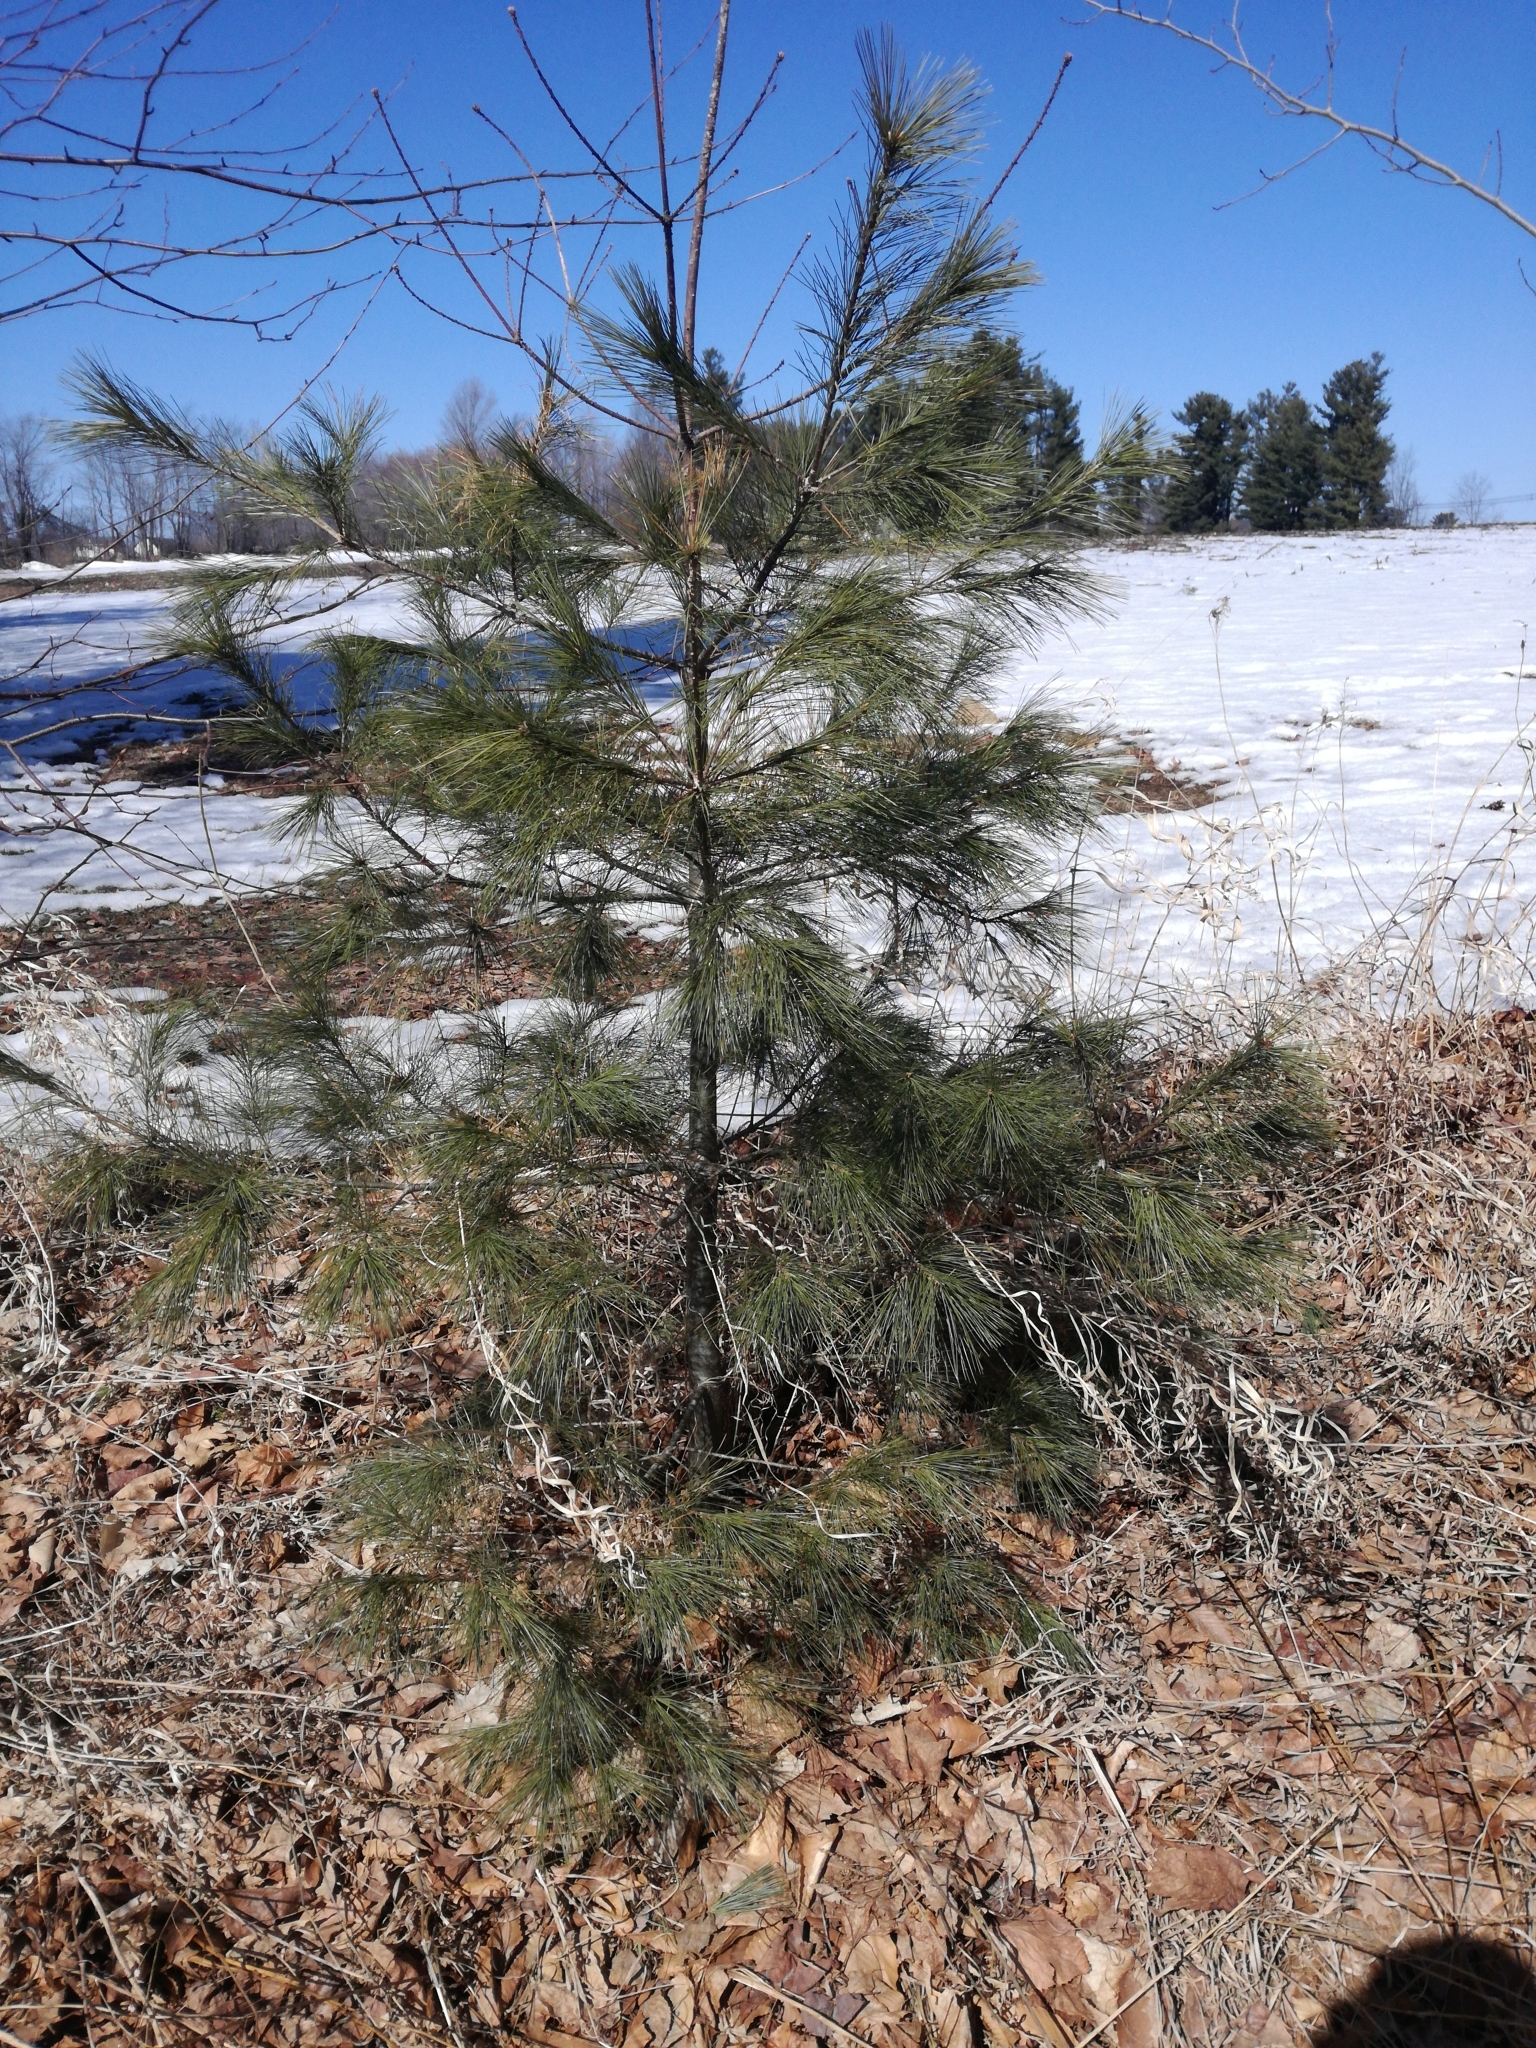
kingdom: Plantae
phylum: Tracheophyta
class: Pinopsida
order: Pinales
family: Pinaceae
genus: Pinus
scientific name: Pinus strobus
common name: Weymouth pine
